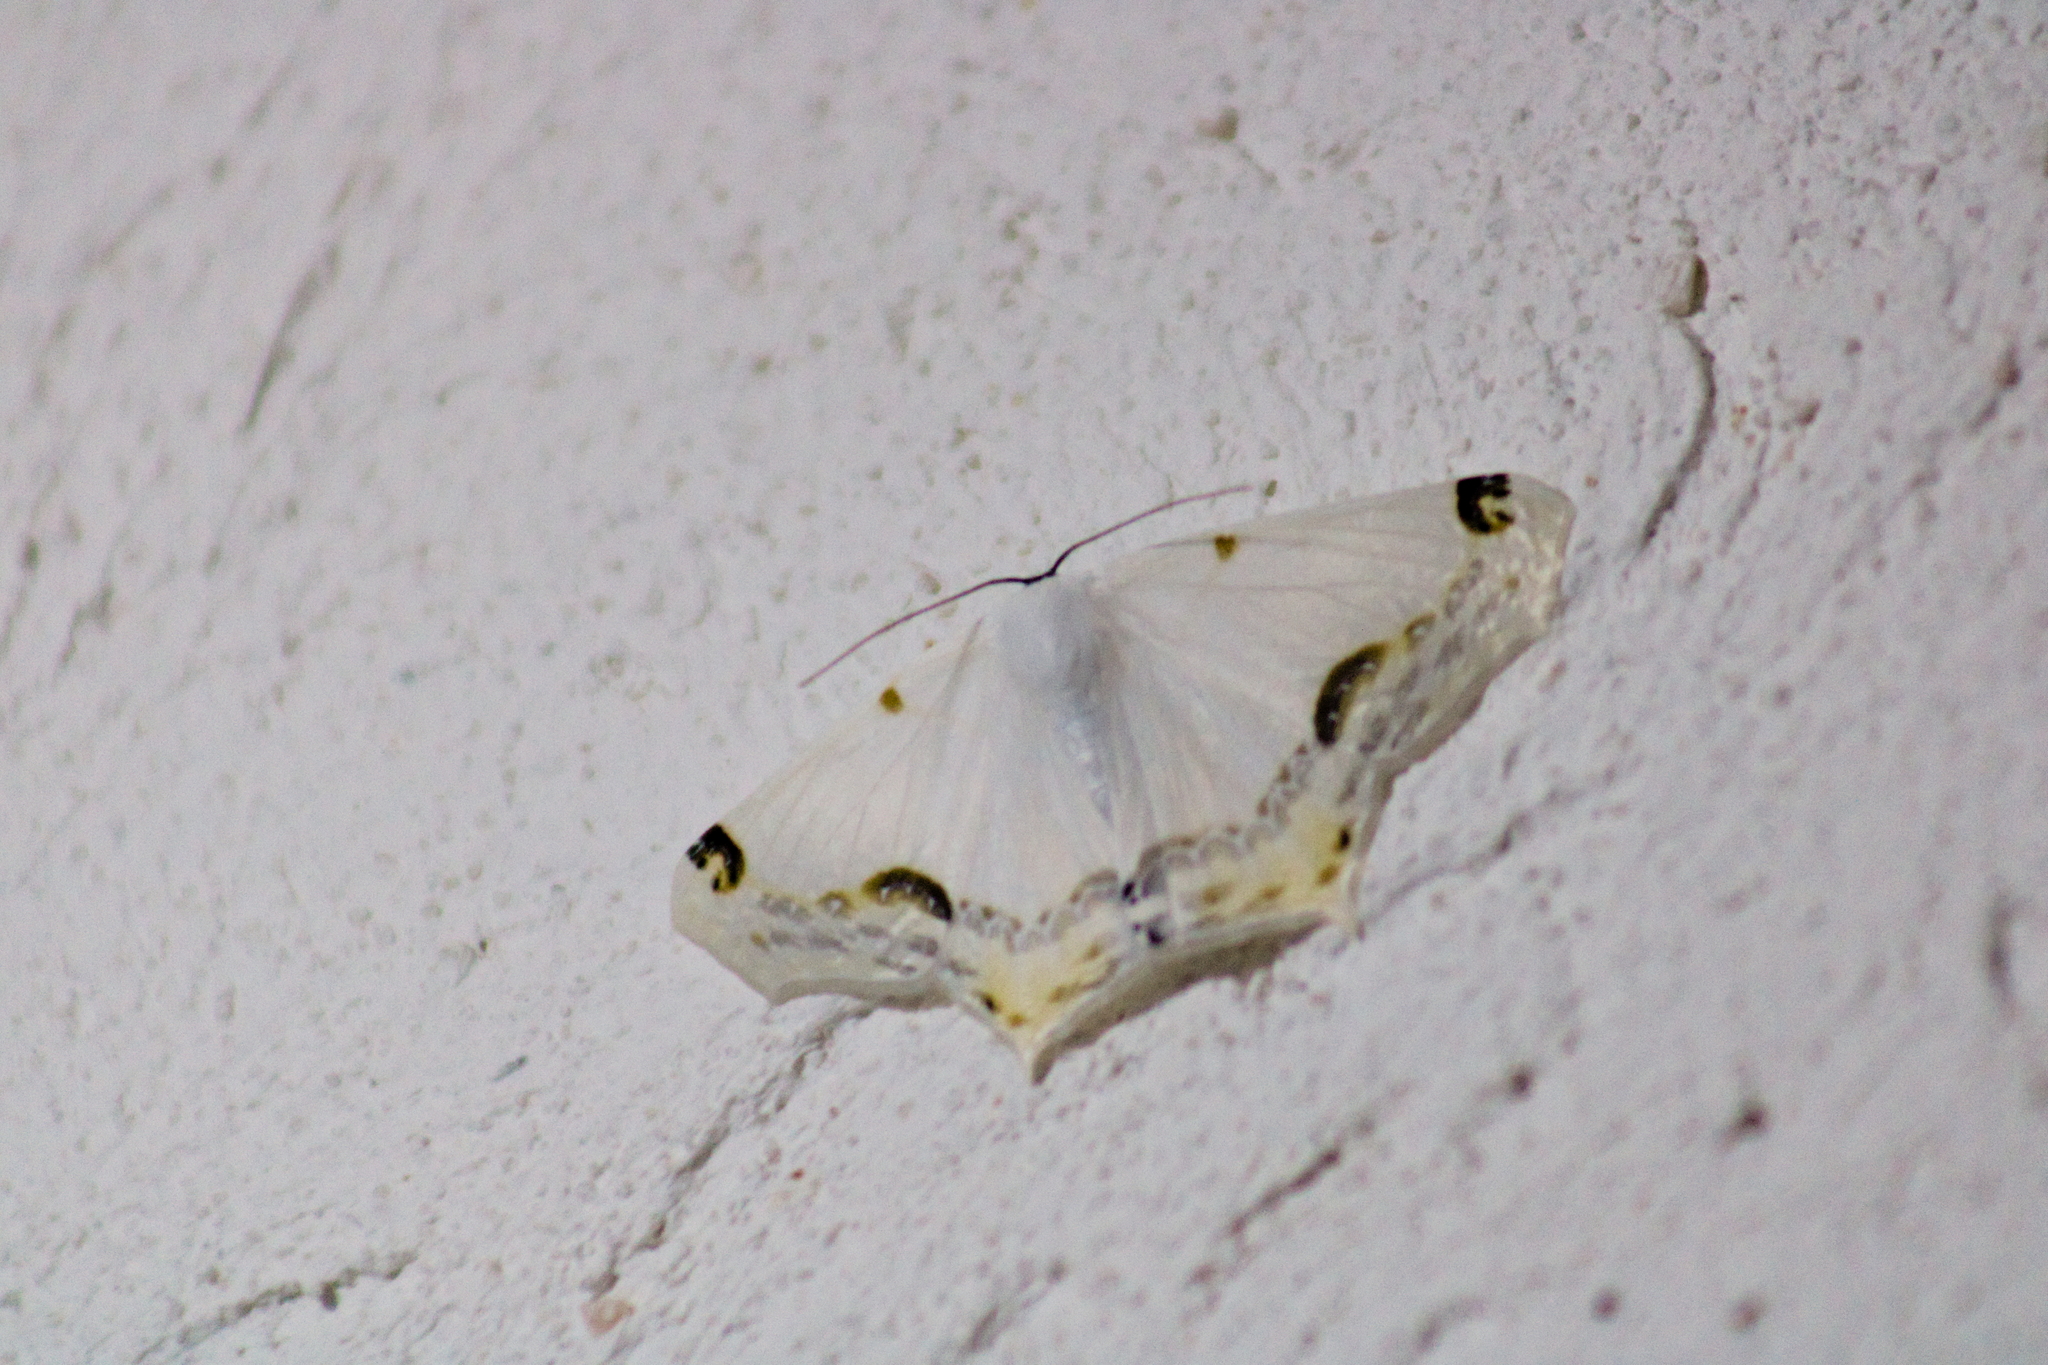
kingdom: Animalia
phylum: Arthropoda
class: Insecta
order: Lepidoptera
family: Geometridae
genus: Sericoptera
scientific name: Sericoptera mahometaria
